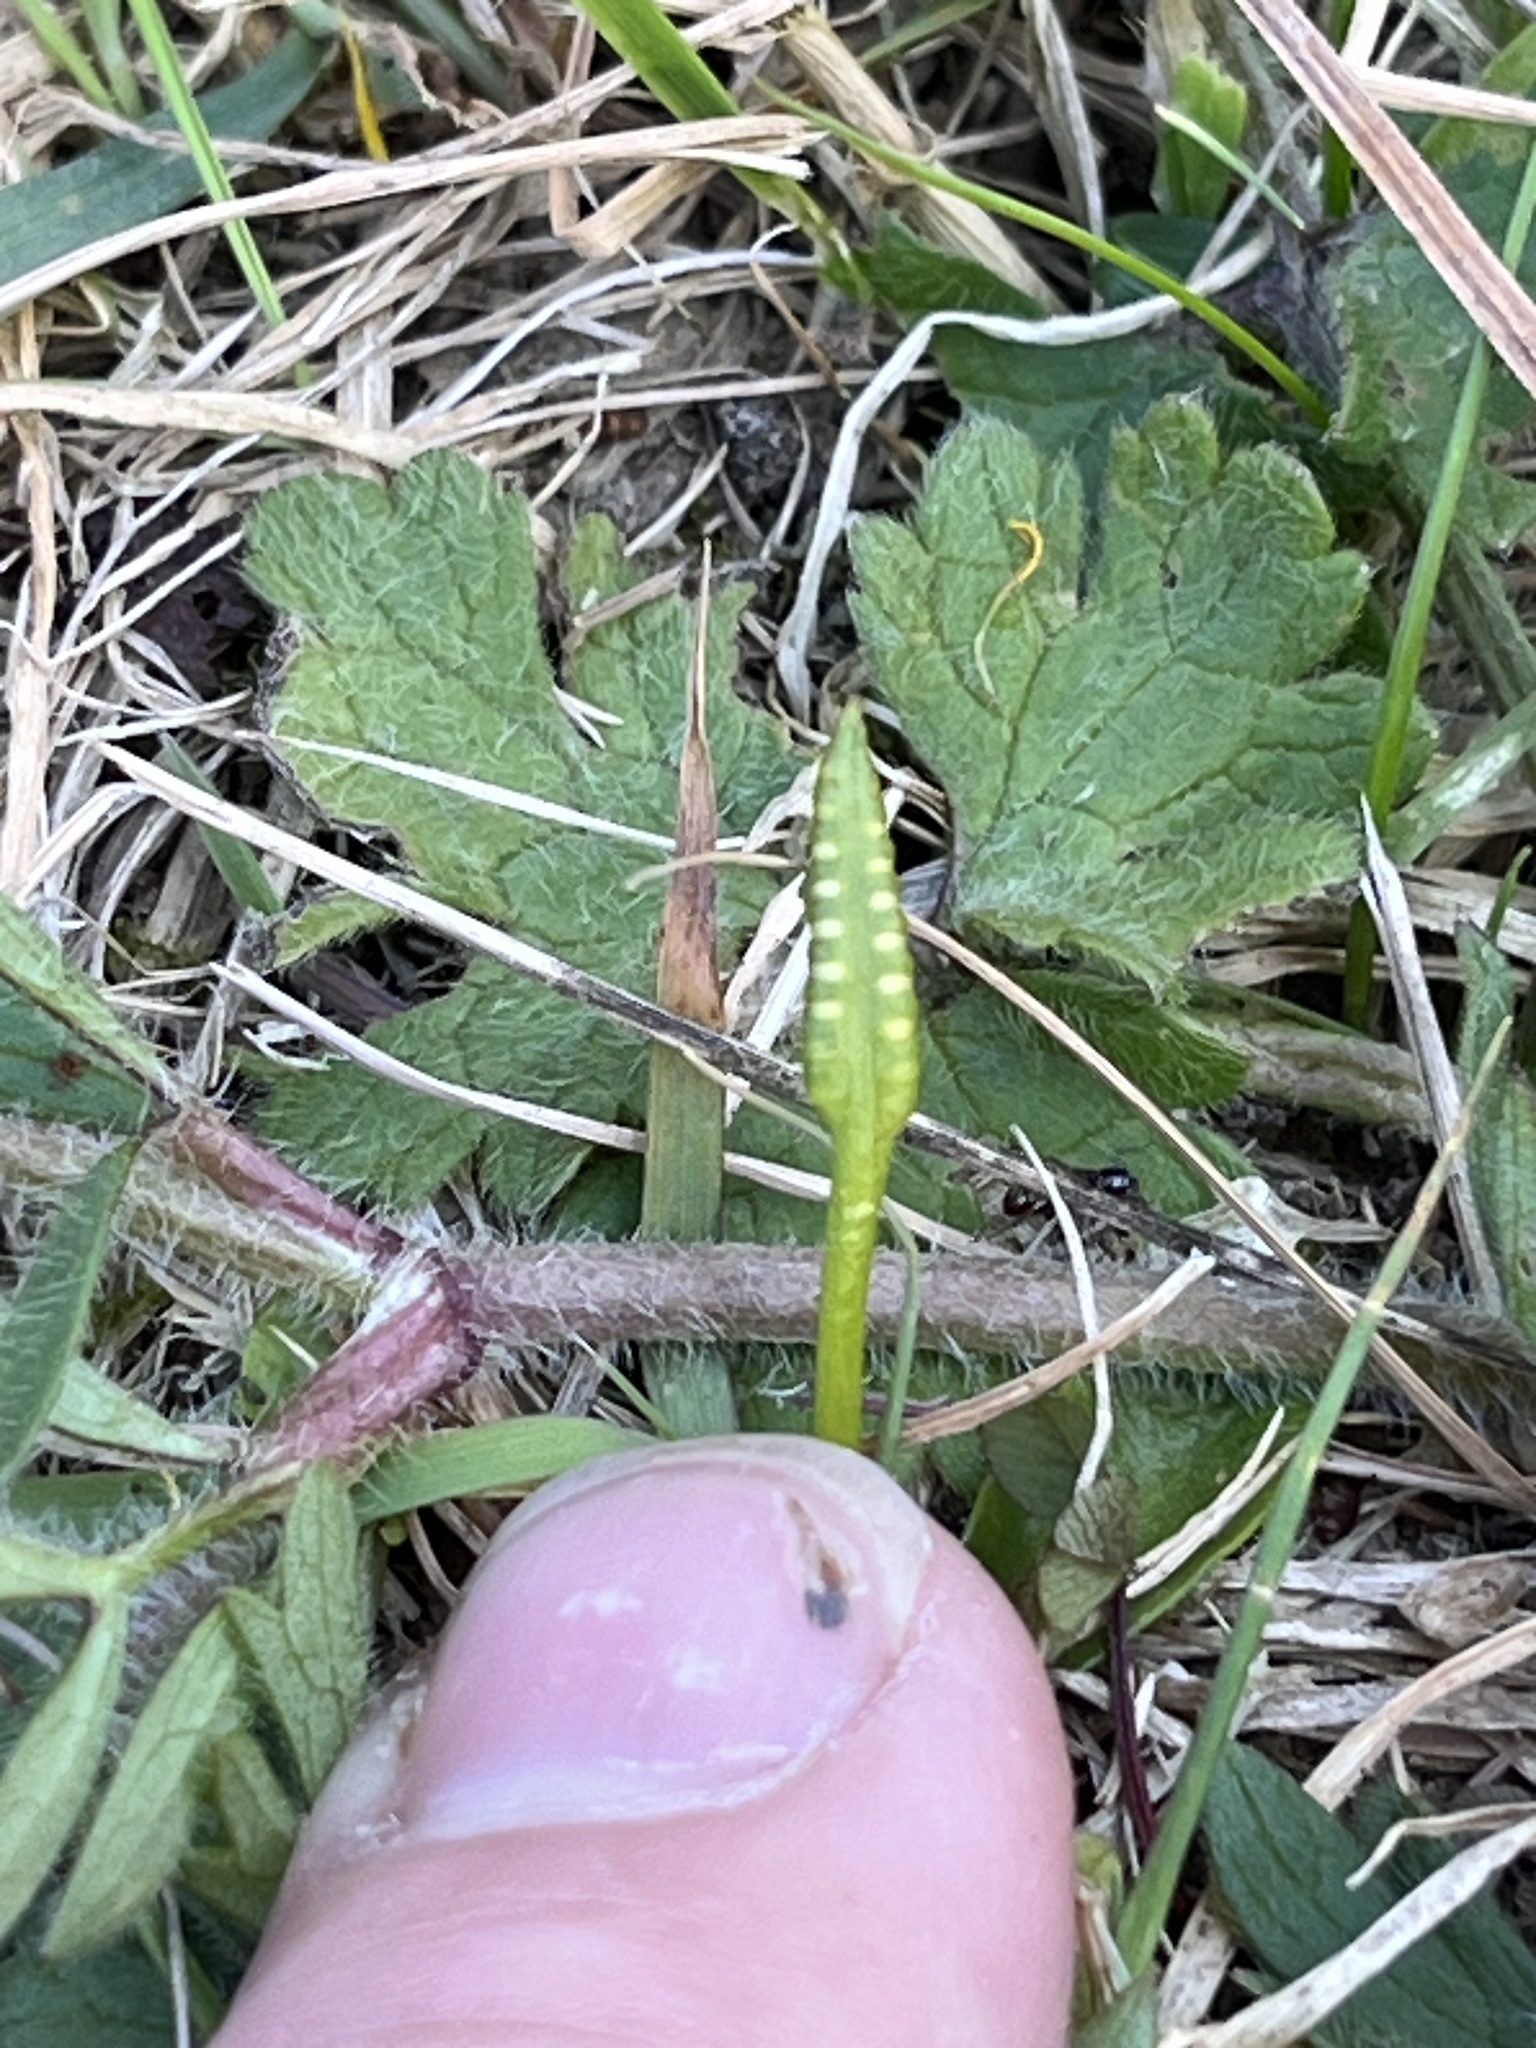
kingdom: Plantae
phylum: Tracheophyta
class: Polypodiopsida
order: Ophioglossales
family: Ophioglossaceae
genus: Ophioglossum
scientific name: Ophioglossum coriaceum
